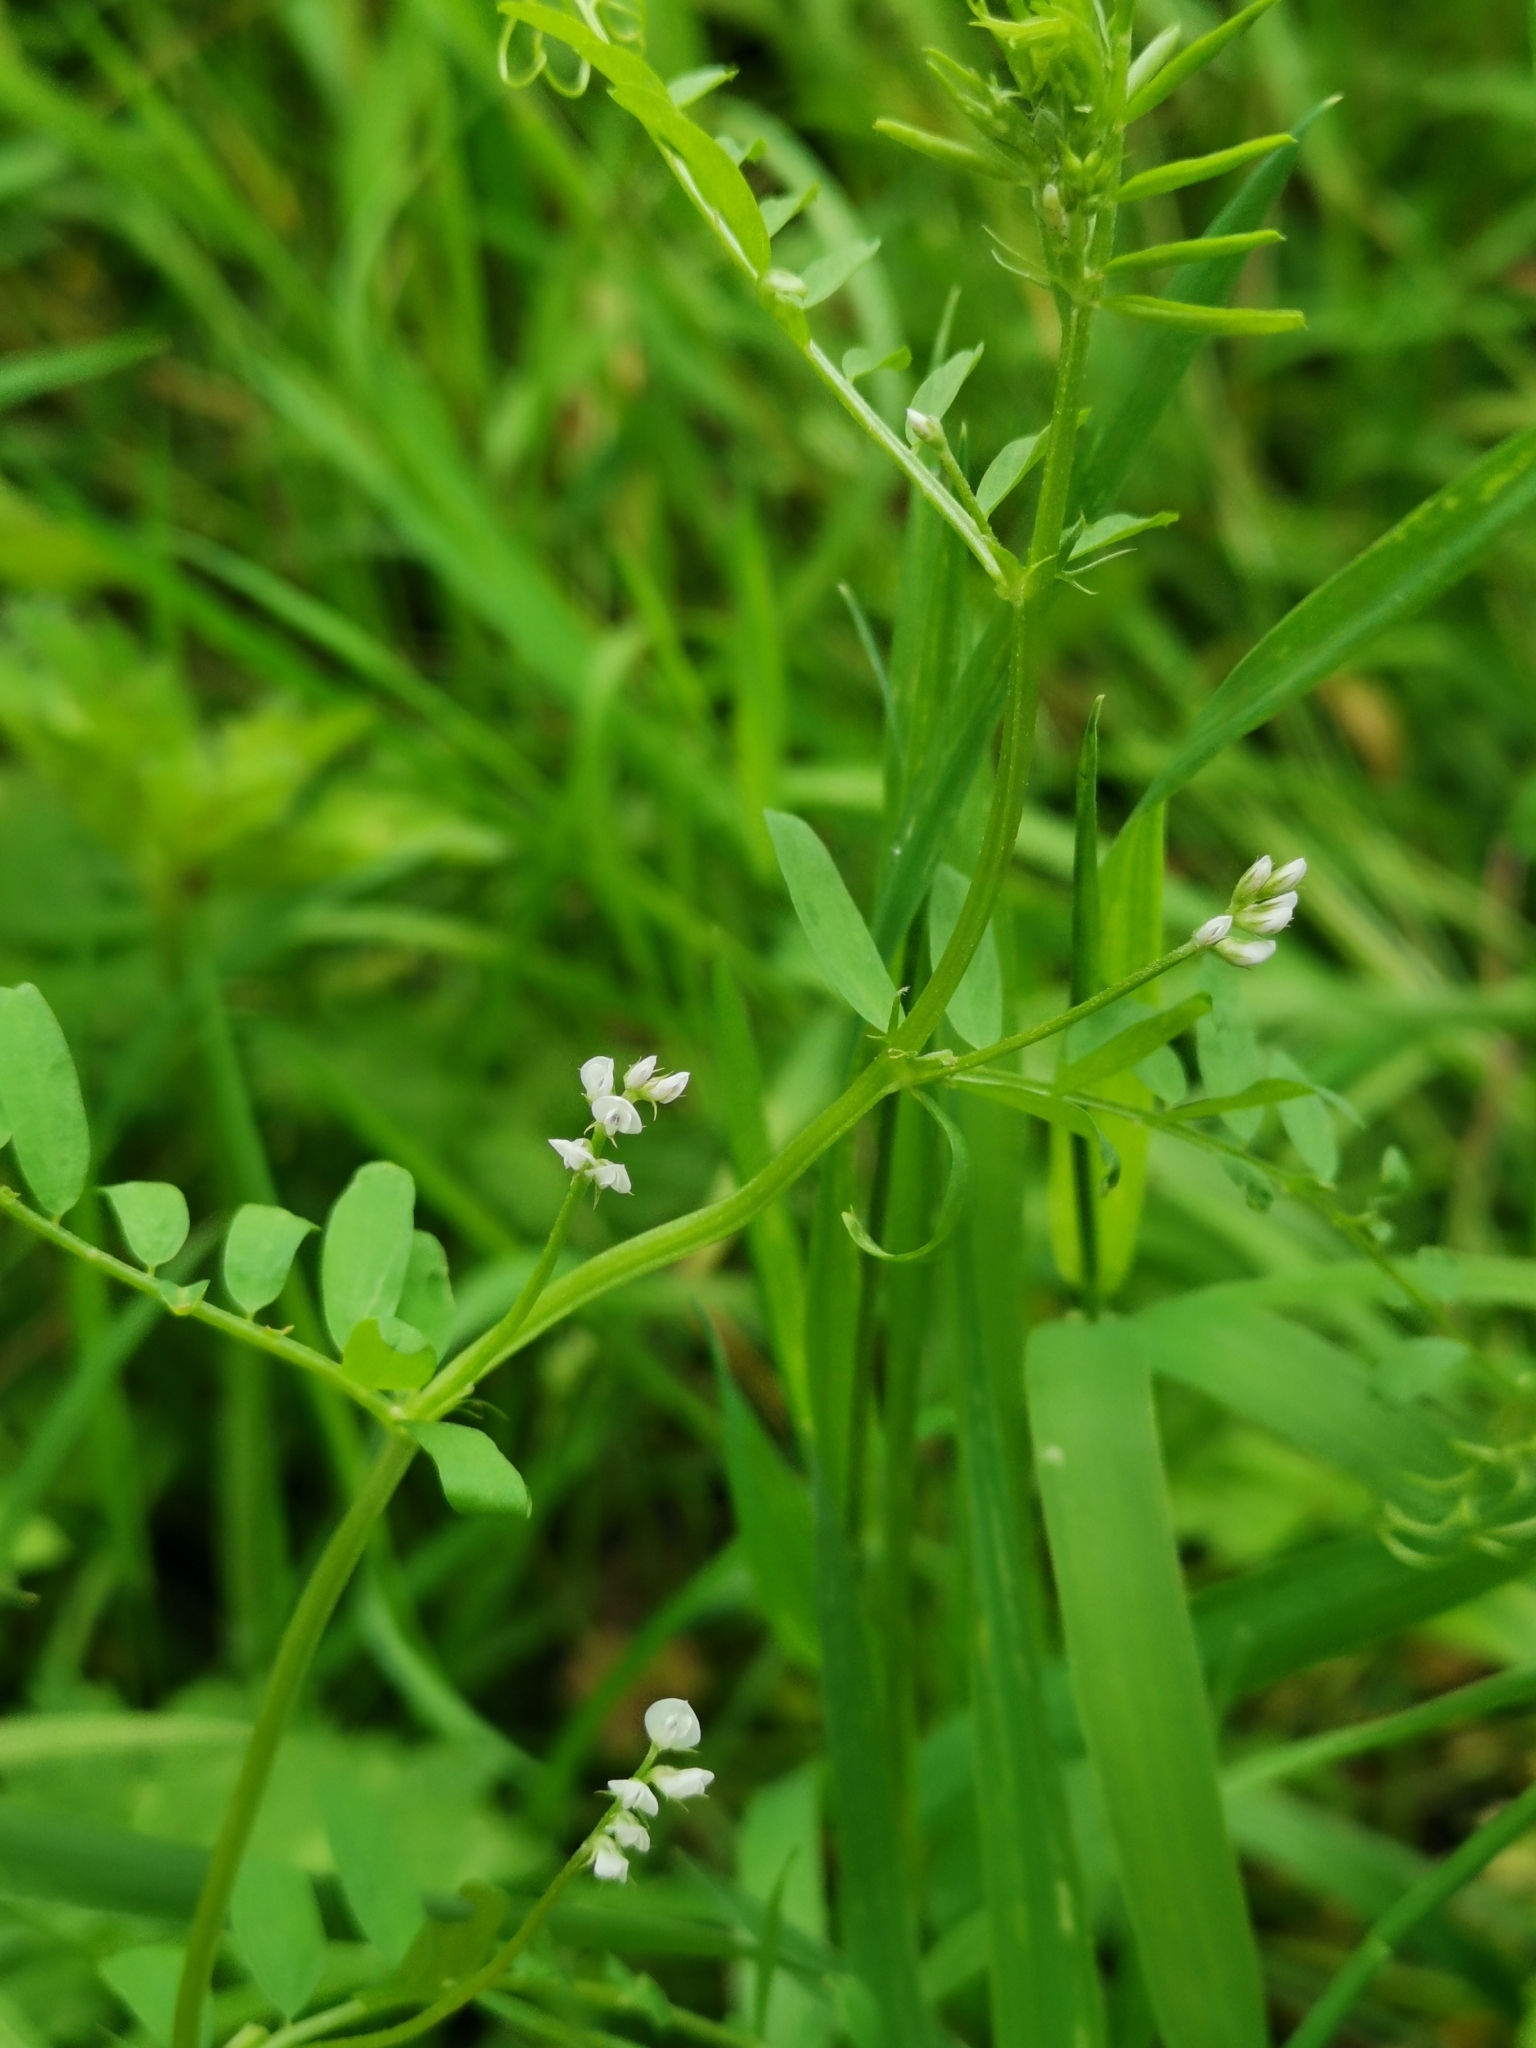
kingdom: Plantae
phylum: Tracheophyta
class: Magnoliopsida
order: Fabales
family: Fabaceae
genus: Vicia
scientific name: Vicia hirsuta
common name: Tiny vetch
